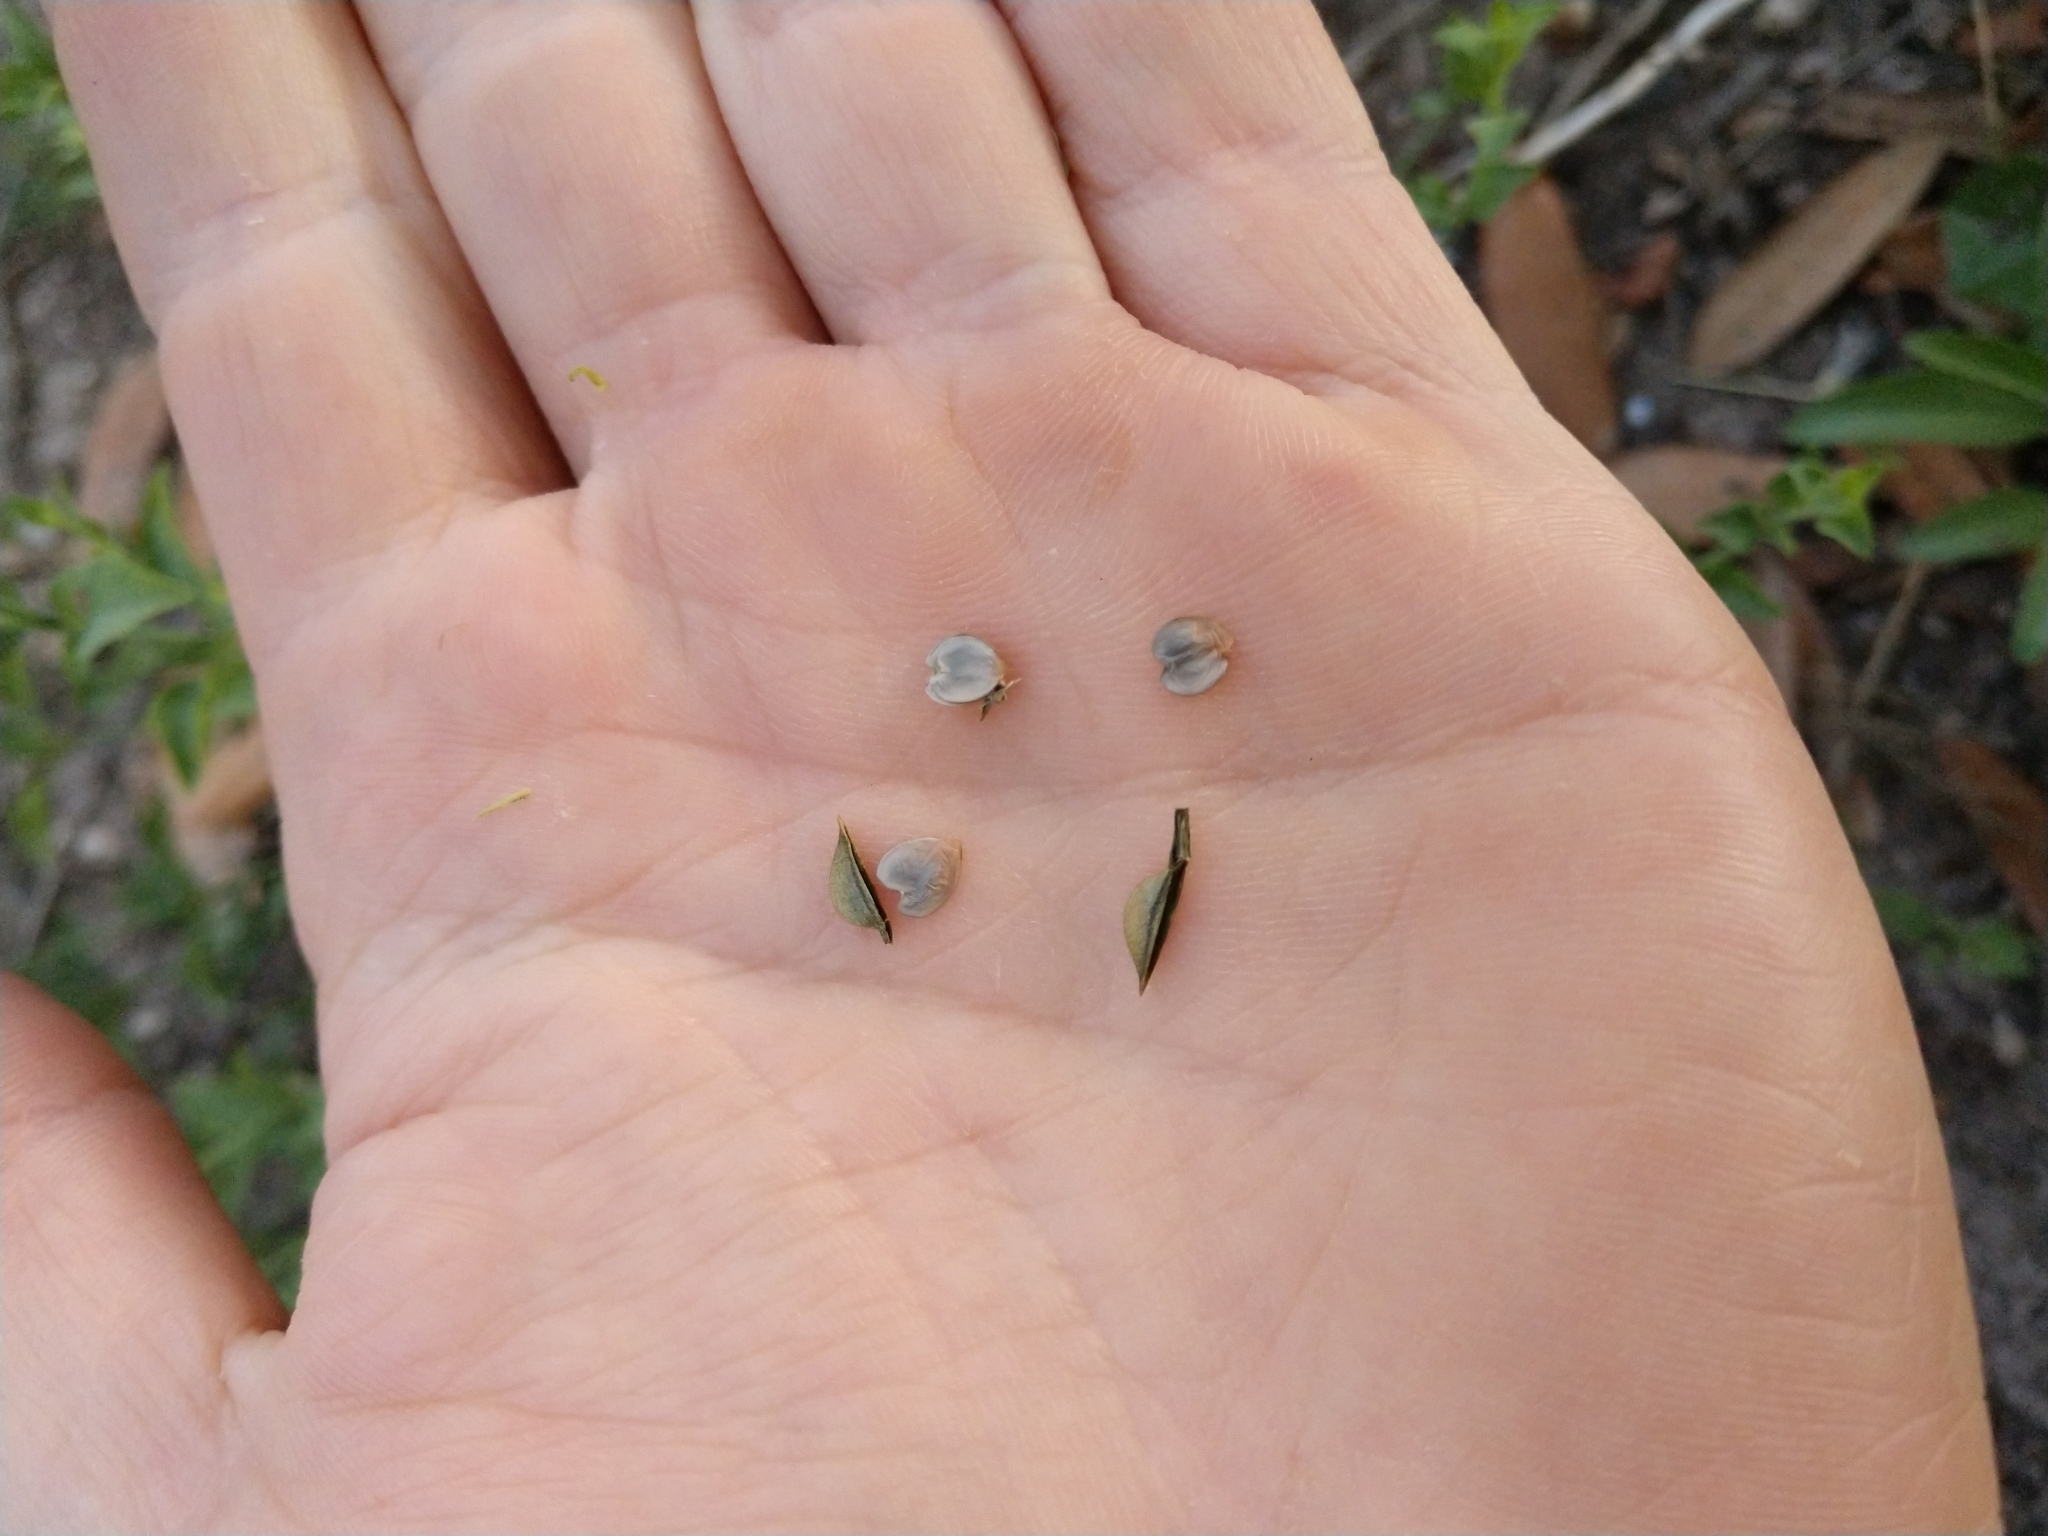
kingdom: Plantae
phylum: Tracheophyta
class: Magnoliopsida
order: Lamiales
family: Acanthaceae
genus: Carlowrightia
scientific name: Carlowrightia texana
